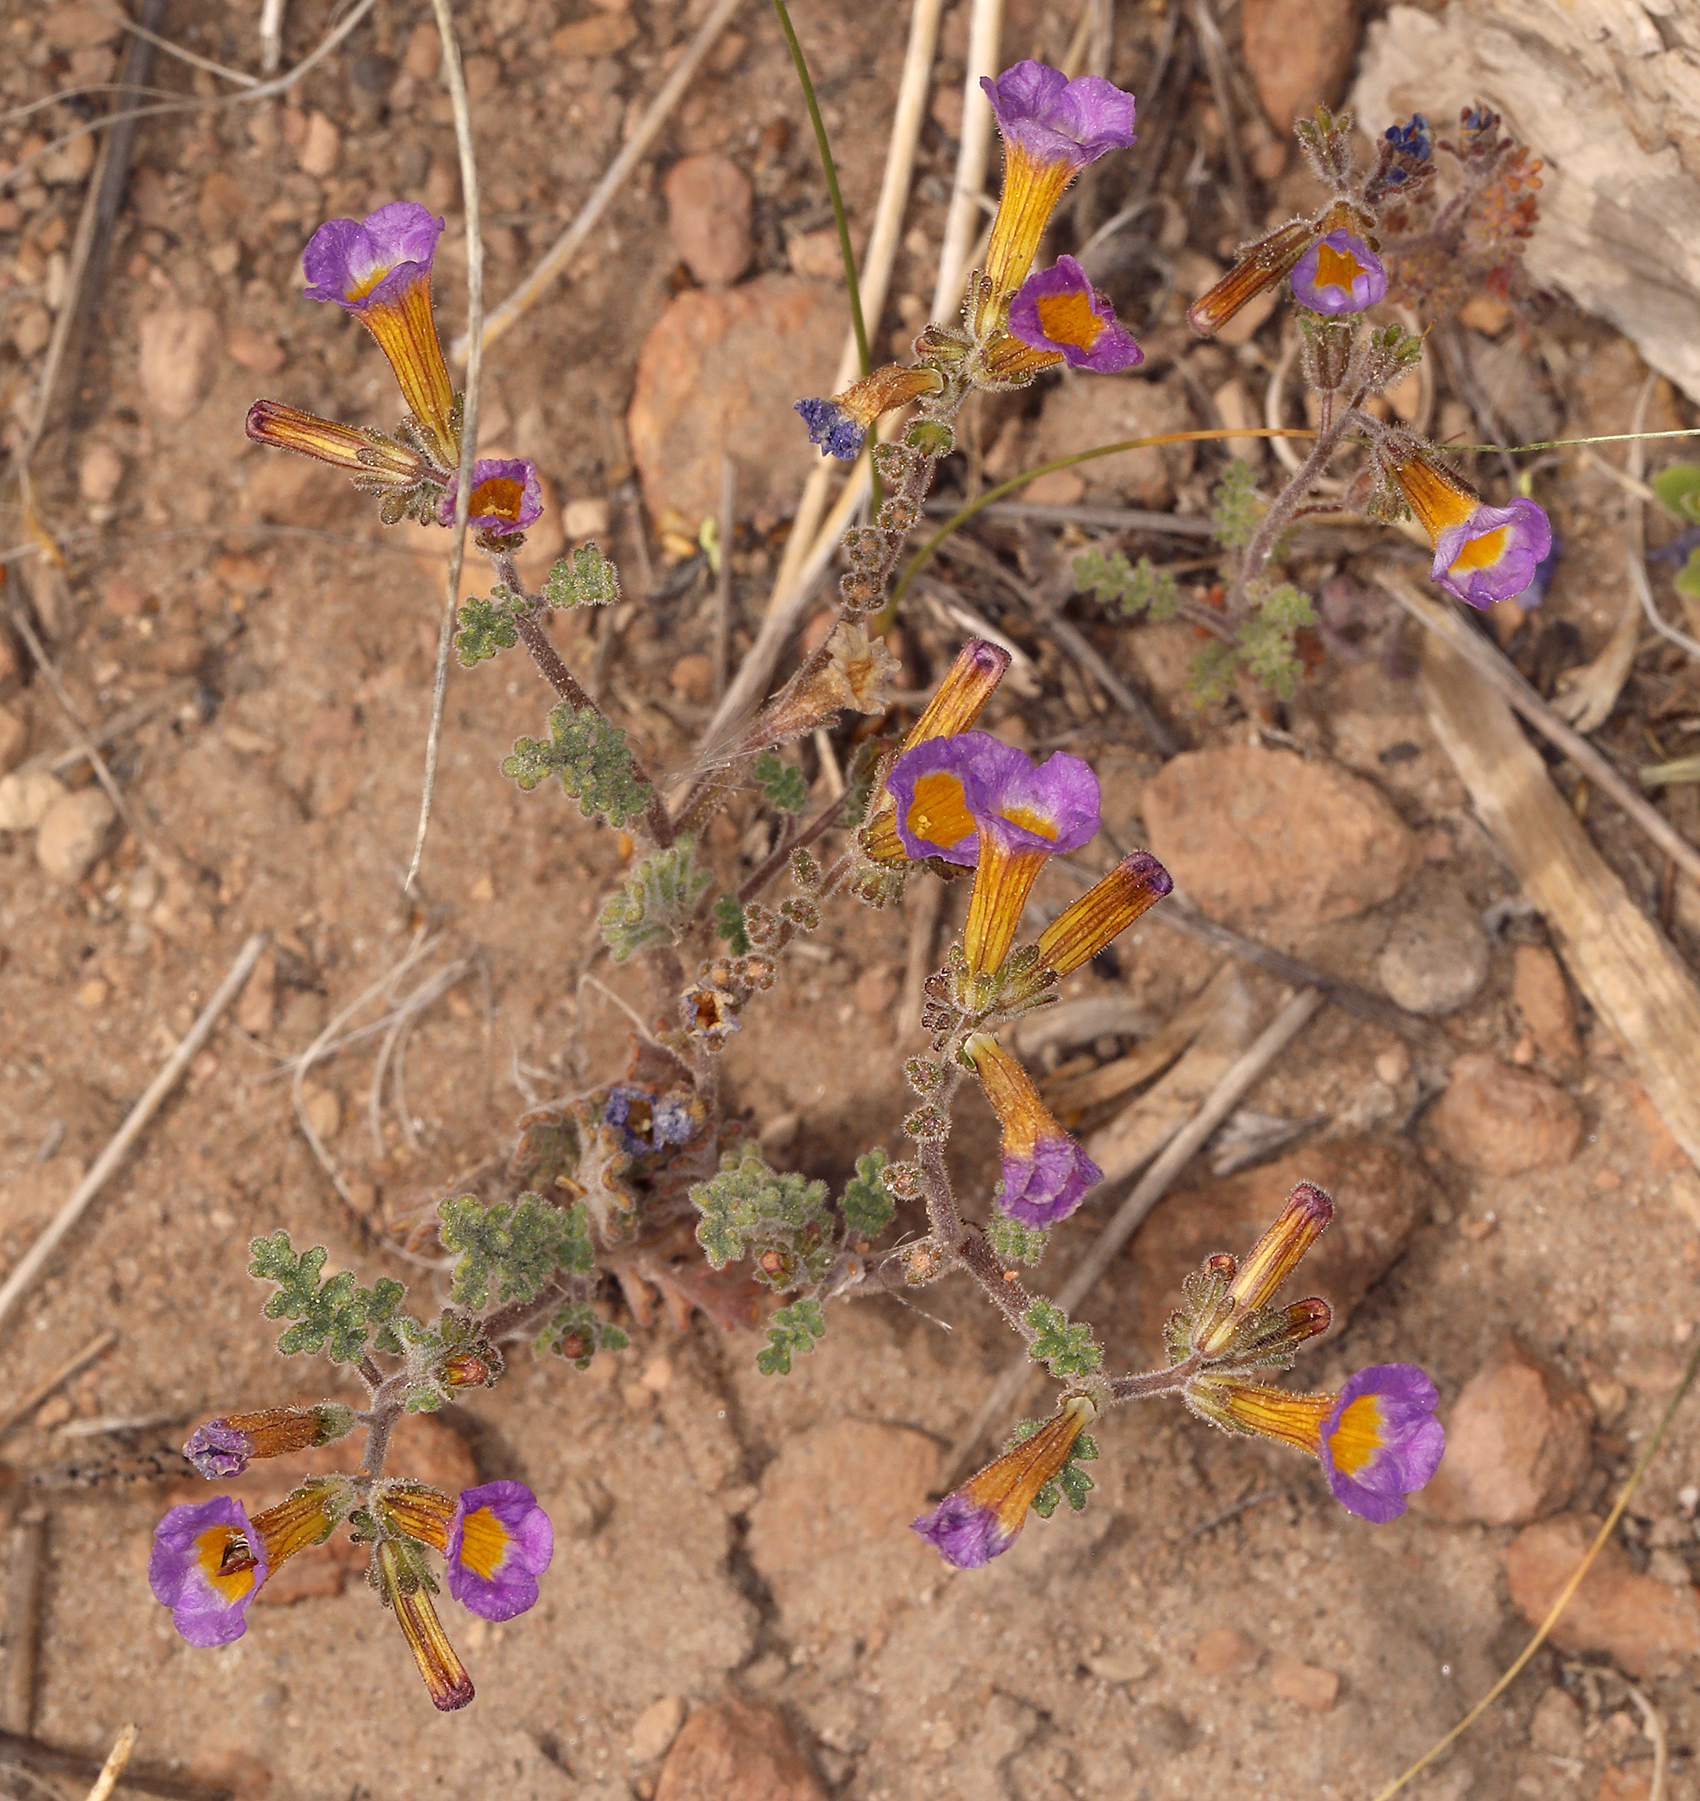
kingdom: Plantae
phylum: Tracheophyta
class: Magnoliopsida
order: Boraginales
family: Hydrophyllaceae
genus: Phacelia
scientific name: Phacelia bicolor
